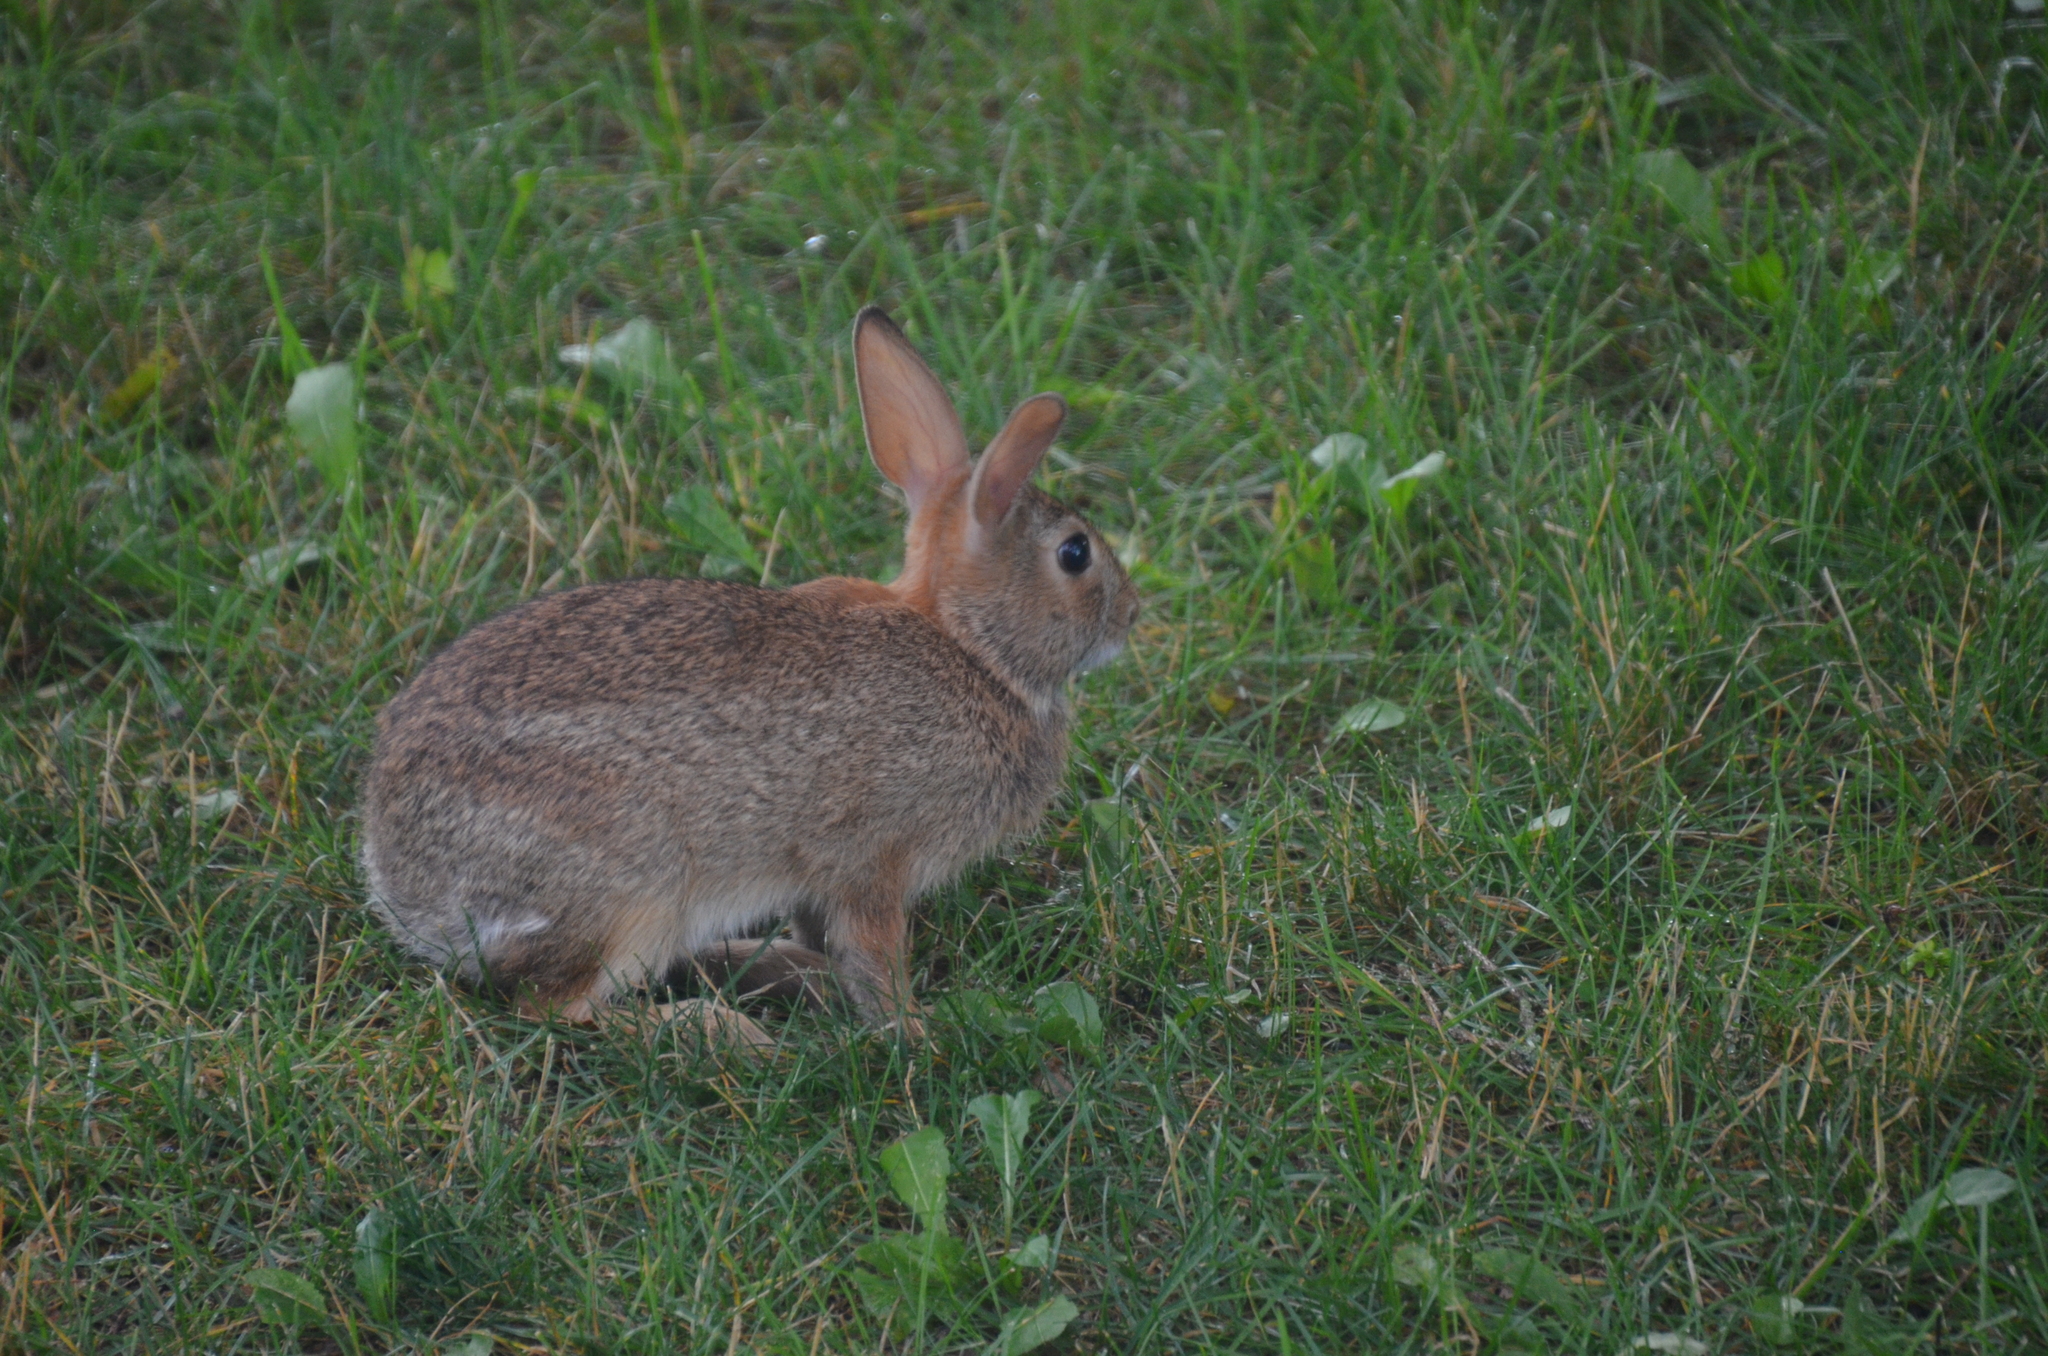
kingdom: Animalia
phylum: Chordata
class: Mammalia
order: Lagomorpha
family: Leporidae
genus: Sylvilagus
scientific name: Sylvilagus floridanus
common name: Eastern cottontail
